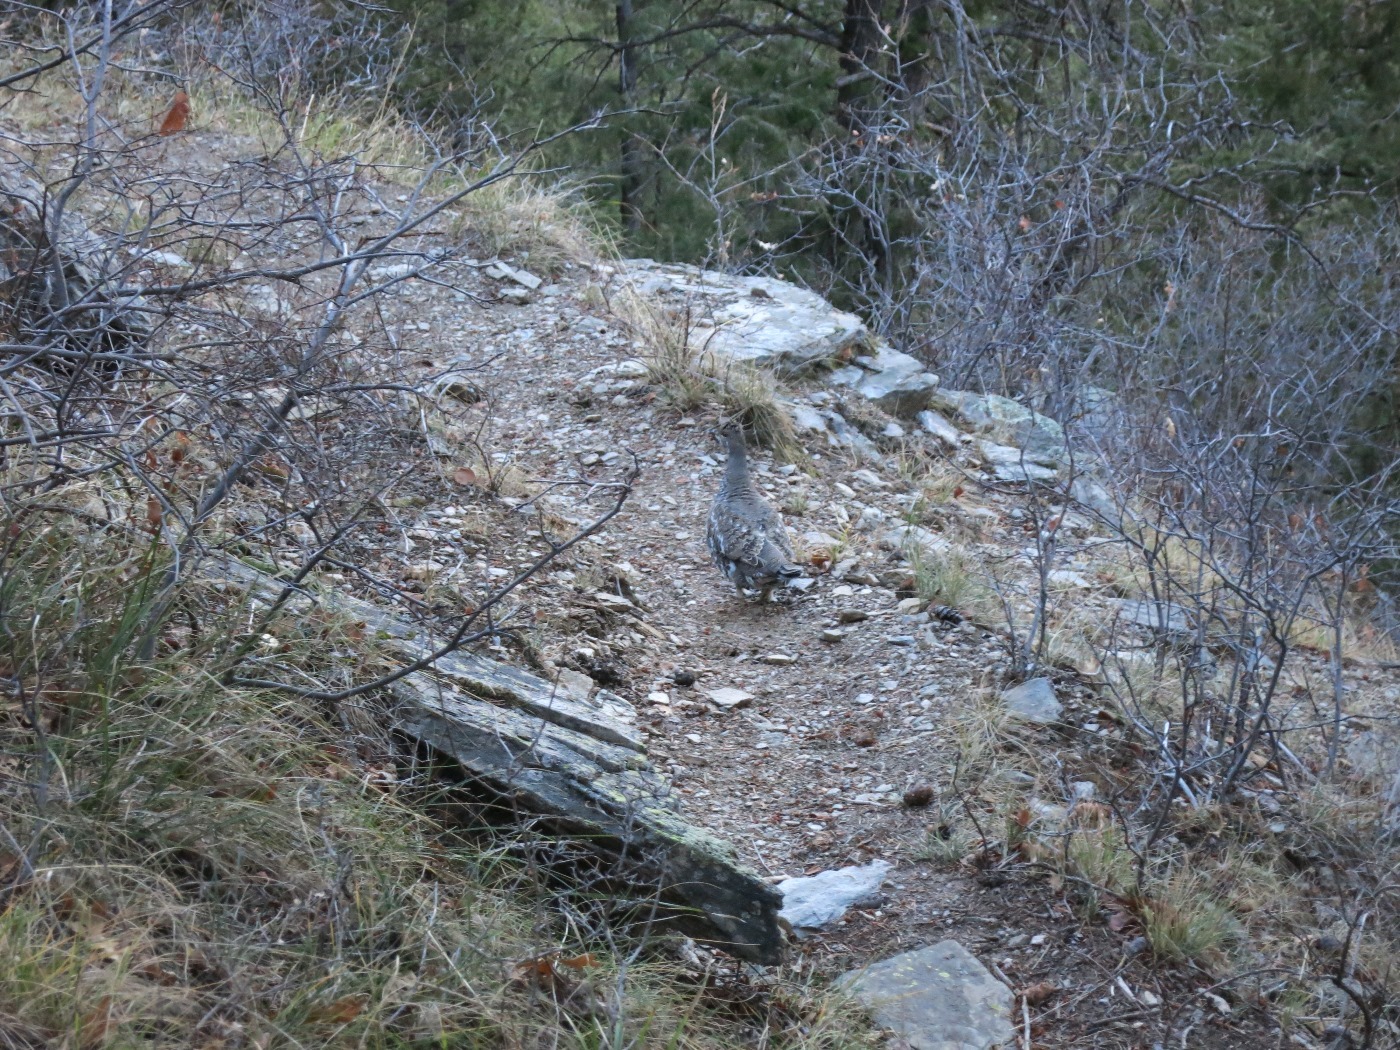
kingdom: Animalia
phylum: Chordata
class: Aves
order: Galliformes
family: Phasianidae
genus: Dendragapus
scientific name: Dendragapus obscurus
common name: Dusky grouse
